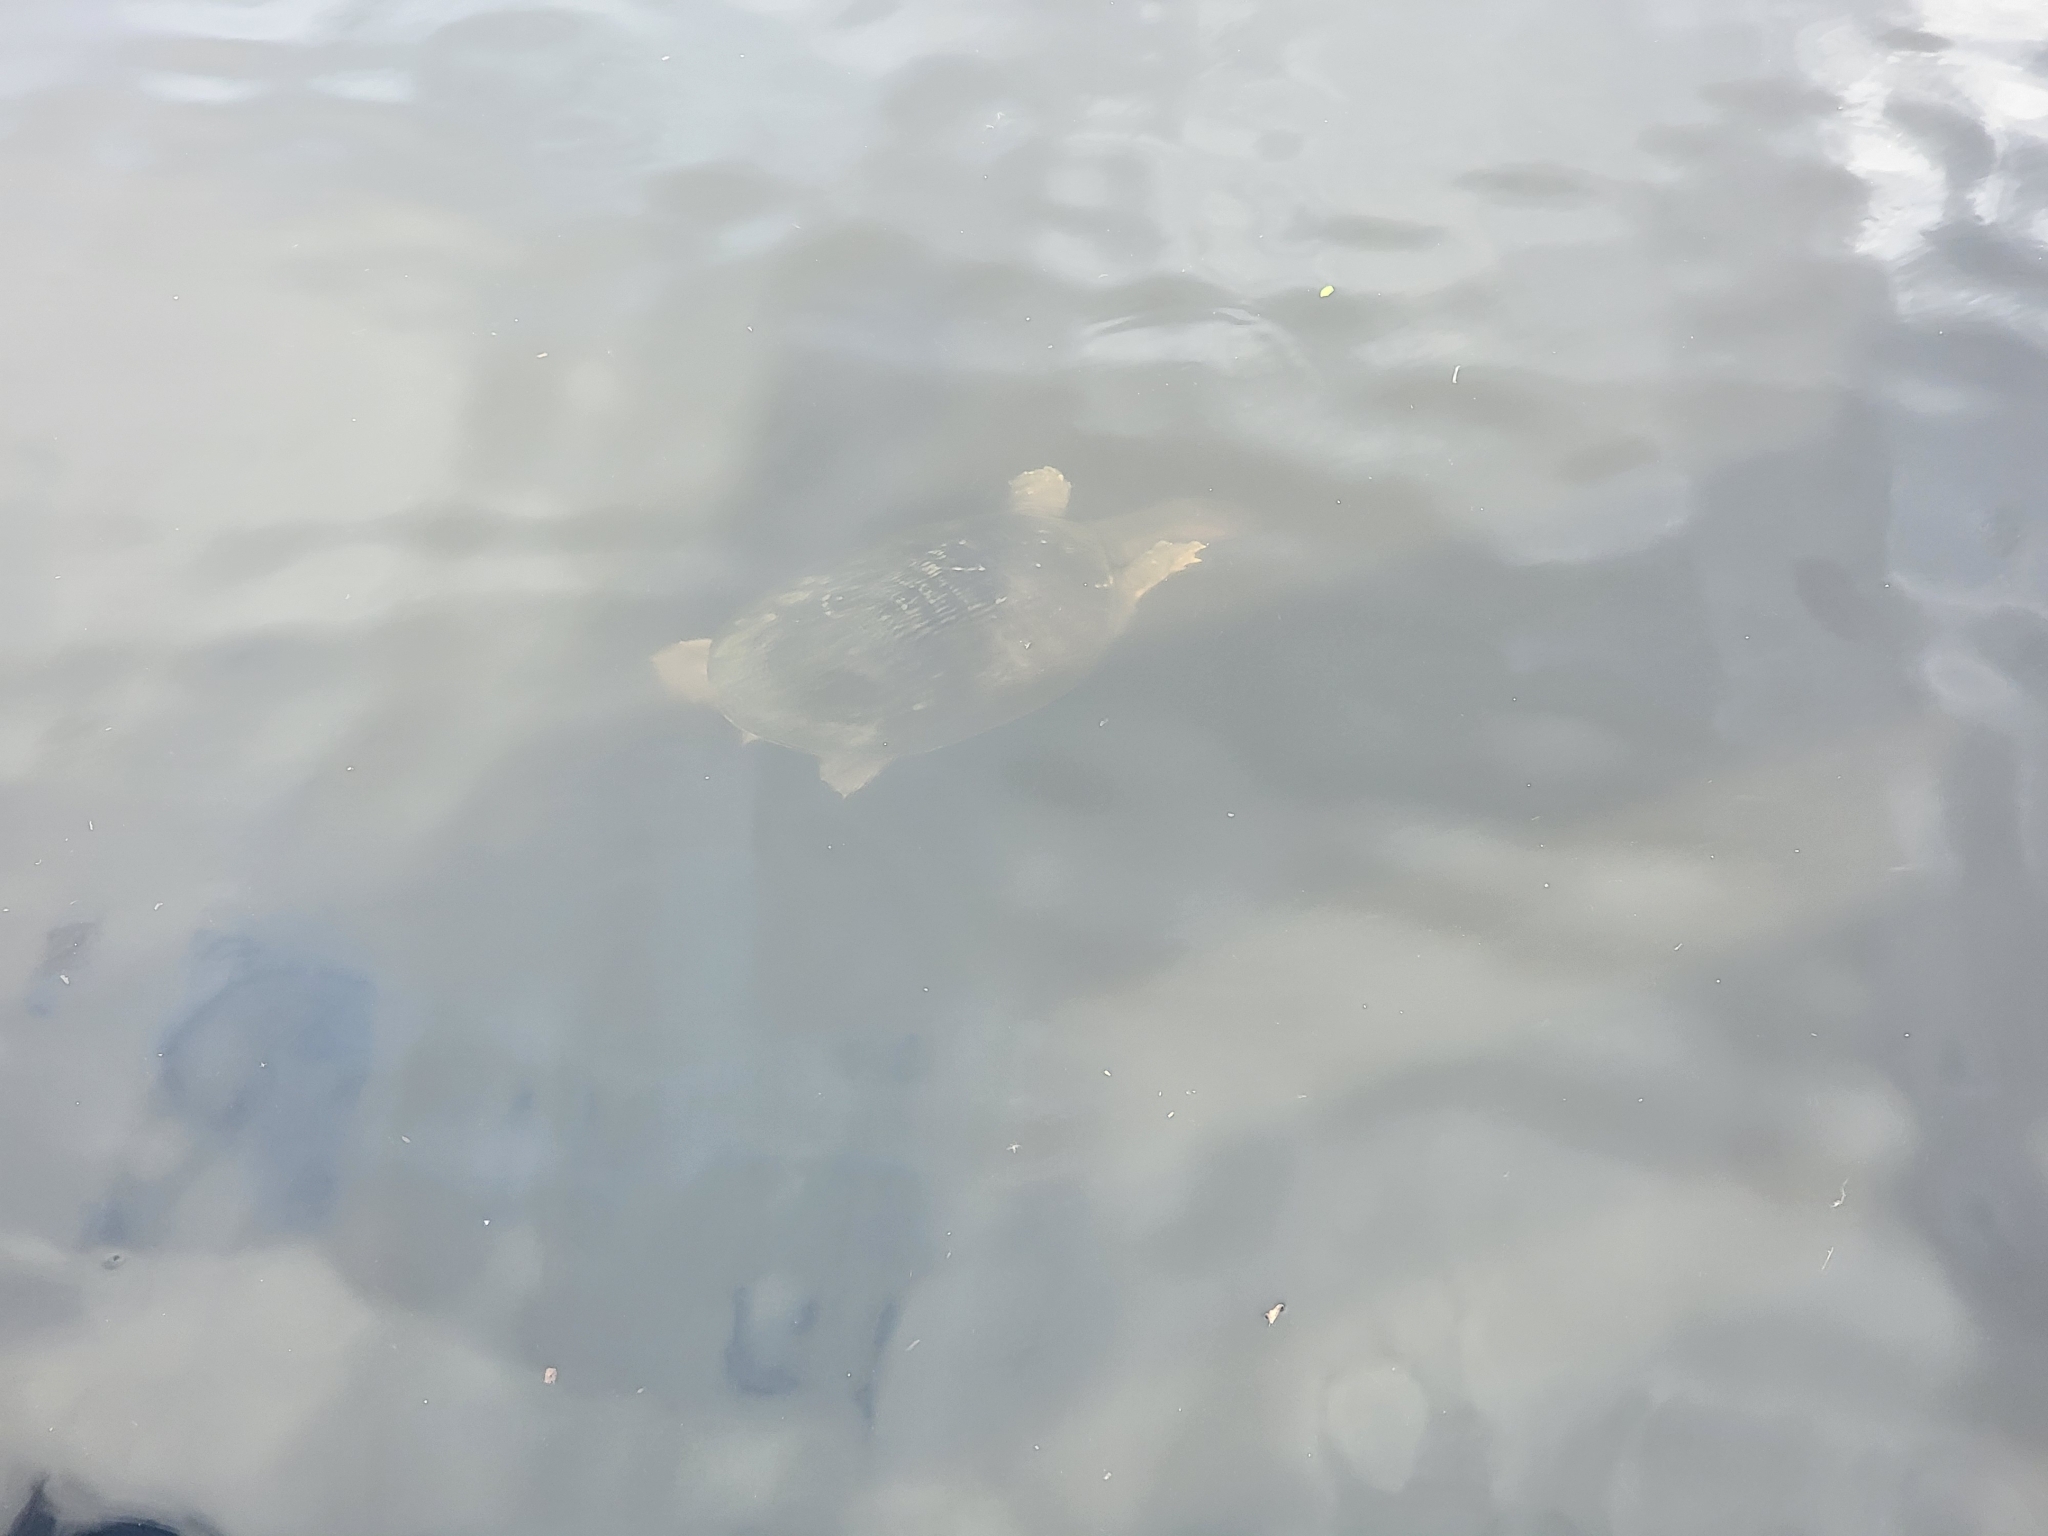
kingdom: Animalia
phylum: Chordata
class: Testudines
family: Trionychidae
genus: Apalone
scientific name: Apalone ferox
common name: Florida softshell turtle
